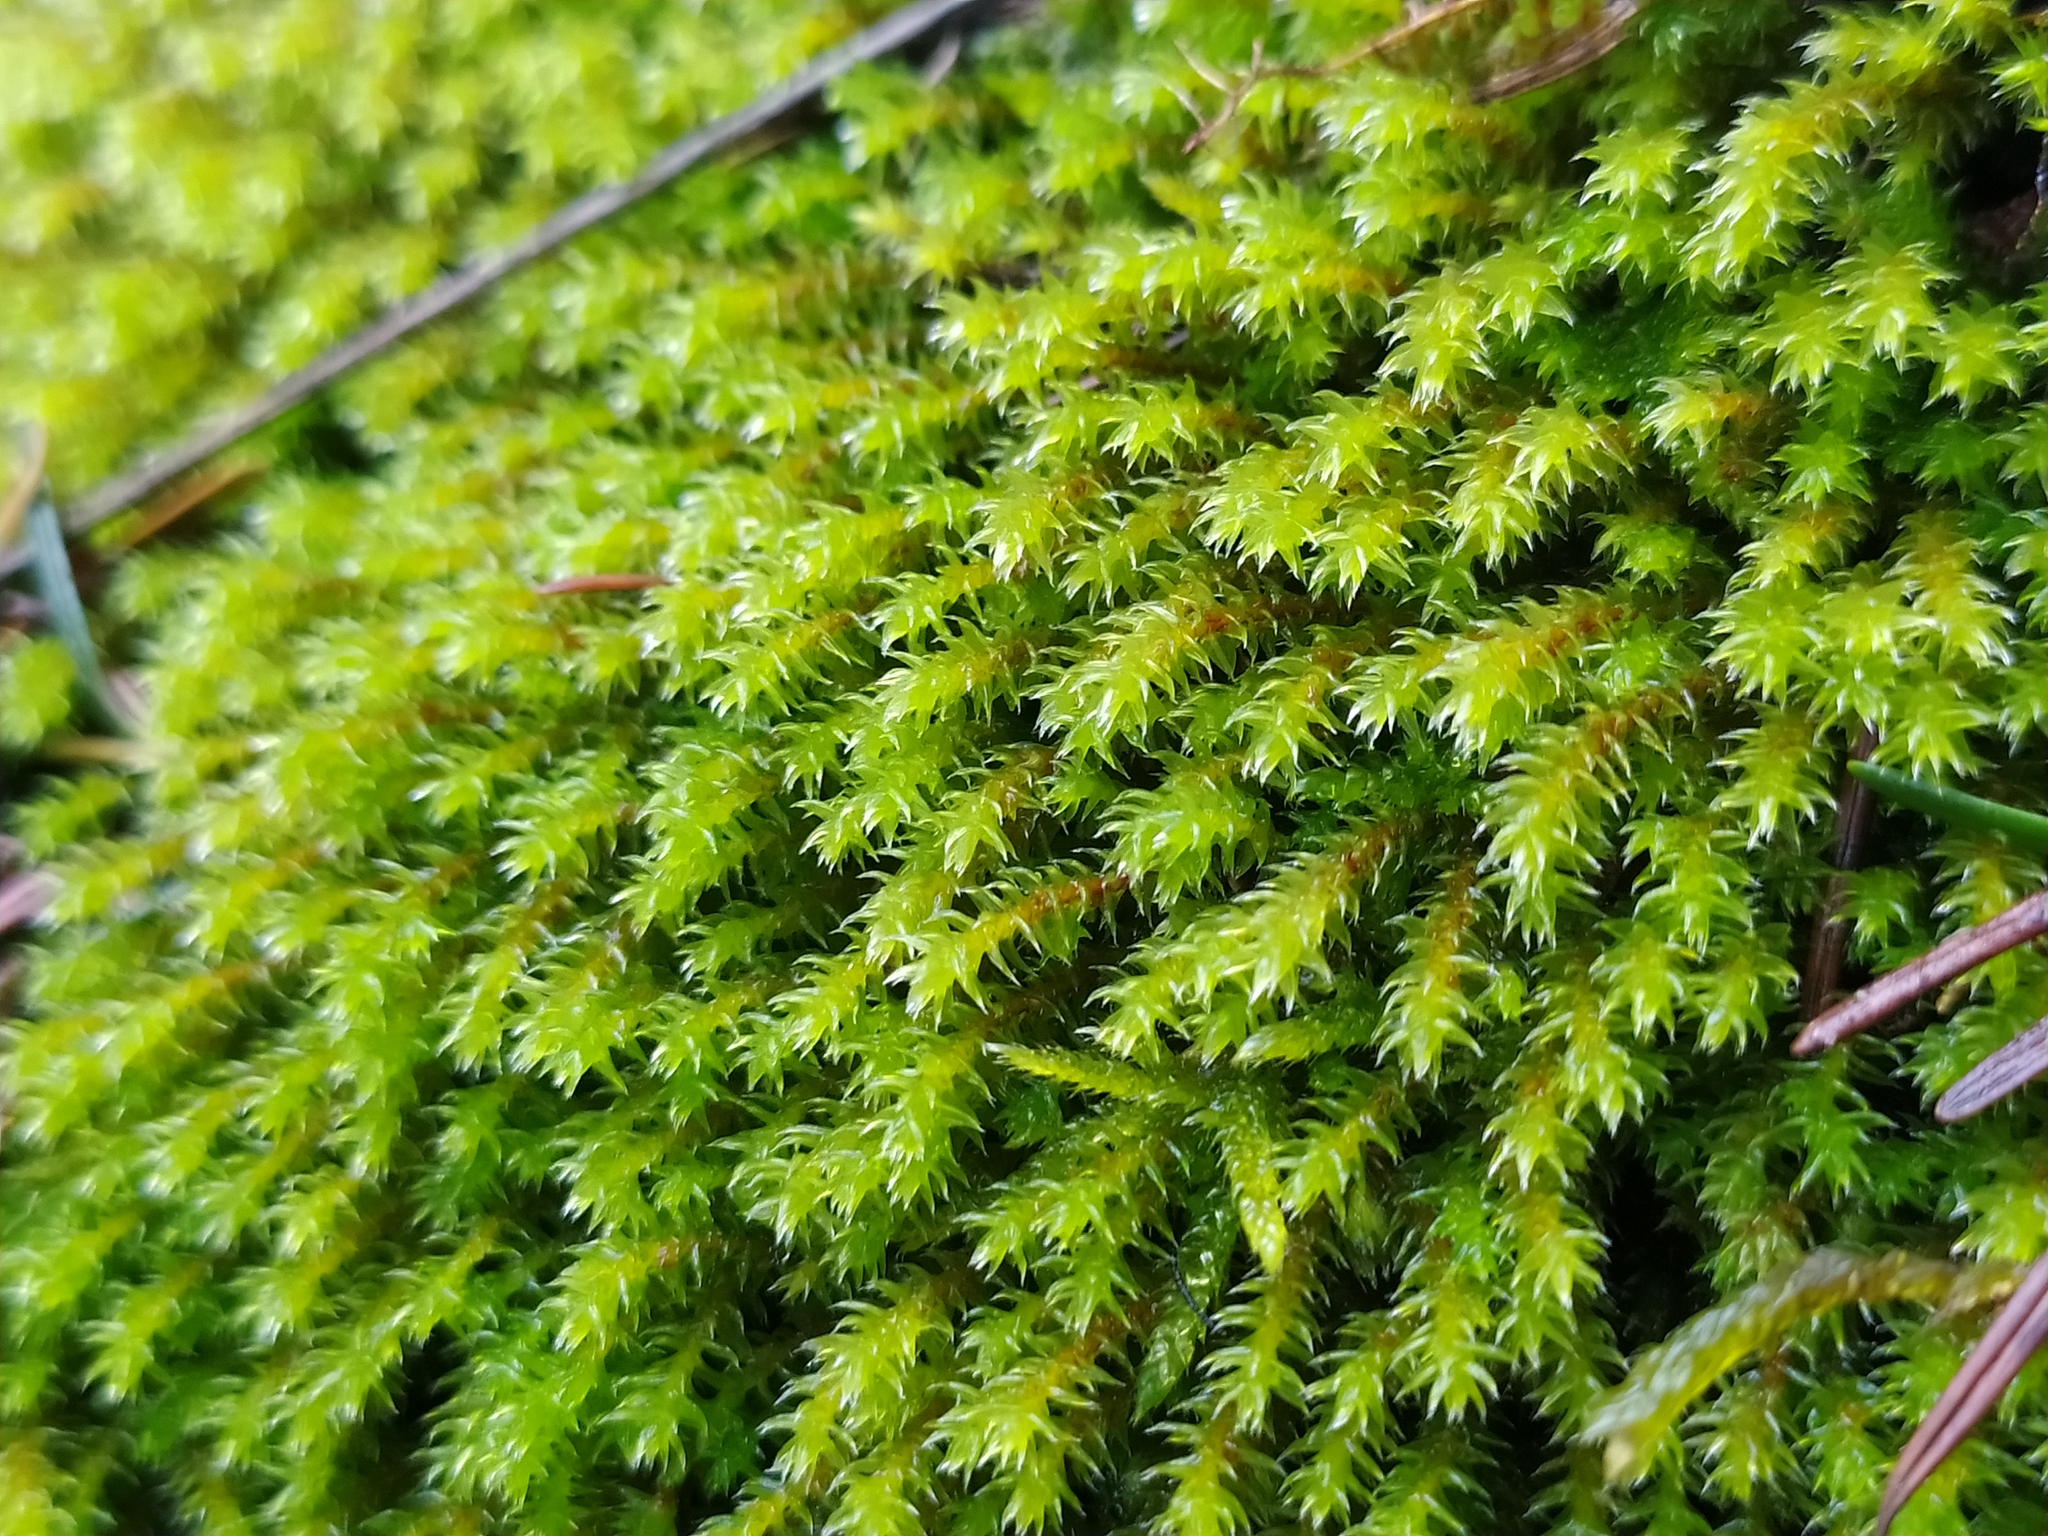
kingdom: Plantae
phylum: Bryophyta
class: Bryopsida
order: Hypnales
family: Anomodontaceae
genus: Anomodon
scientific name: Anomodon viticulosus
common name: Tall anomodon
